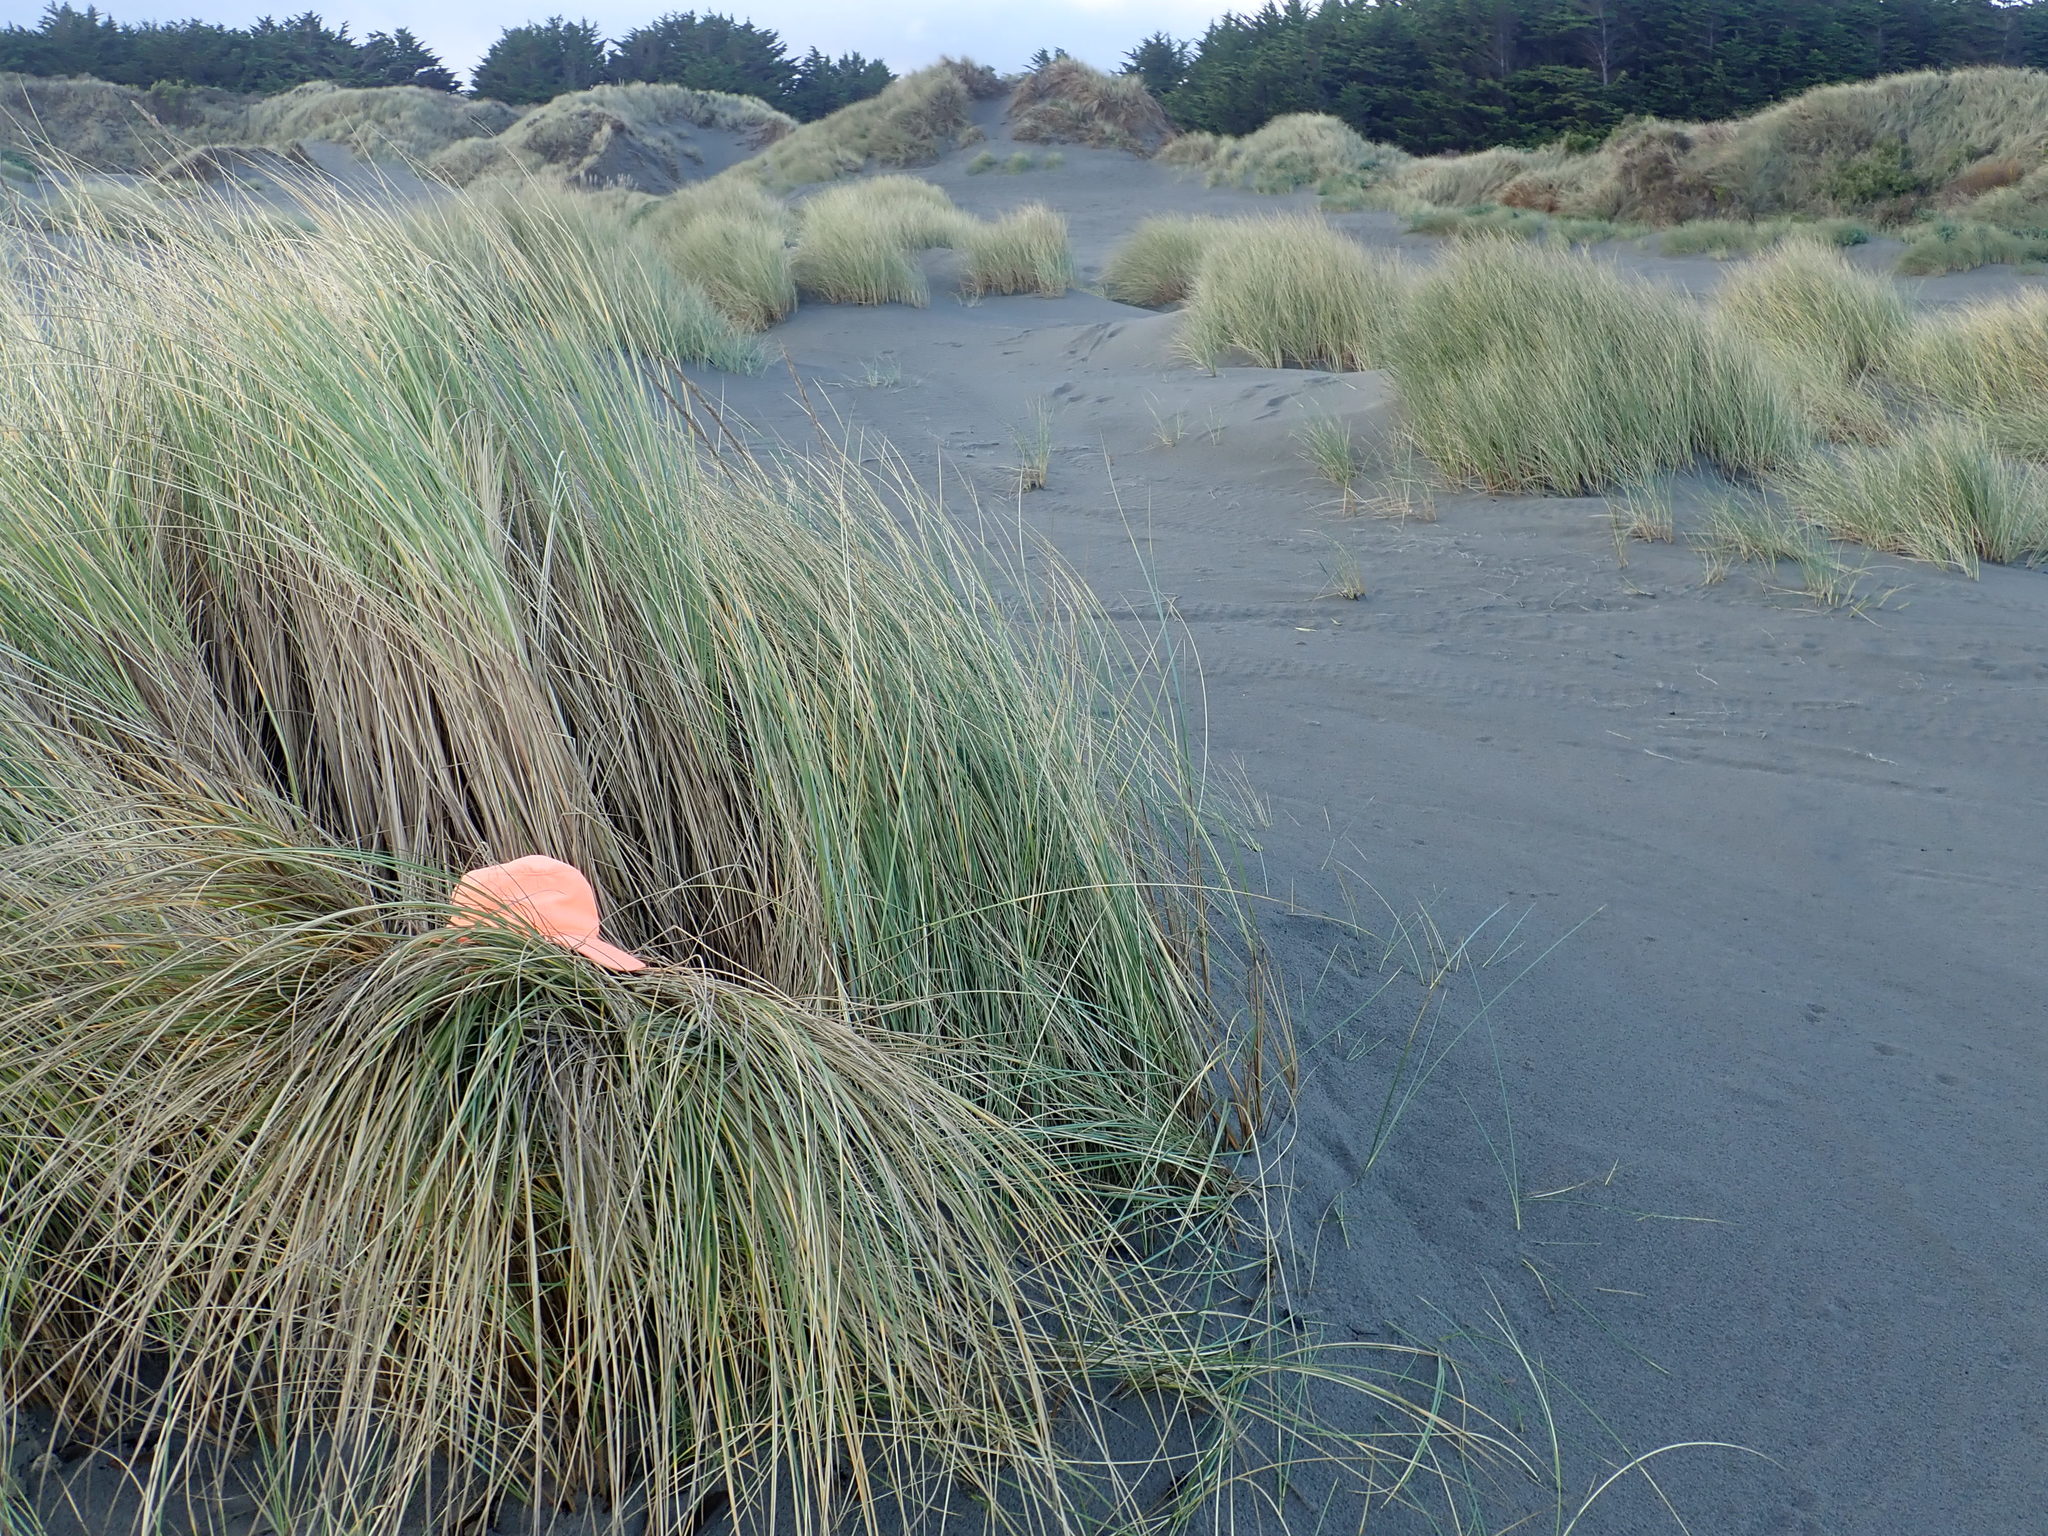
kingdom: Animalia
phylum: Arthropoda
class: Arachnida
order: Araneae
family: Thomisidae
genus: Sidymella
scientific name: Sidymella trapezia
